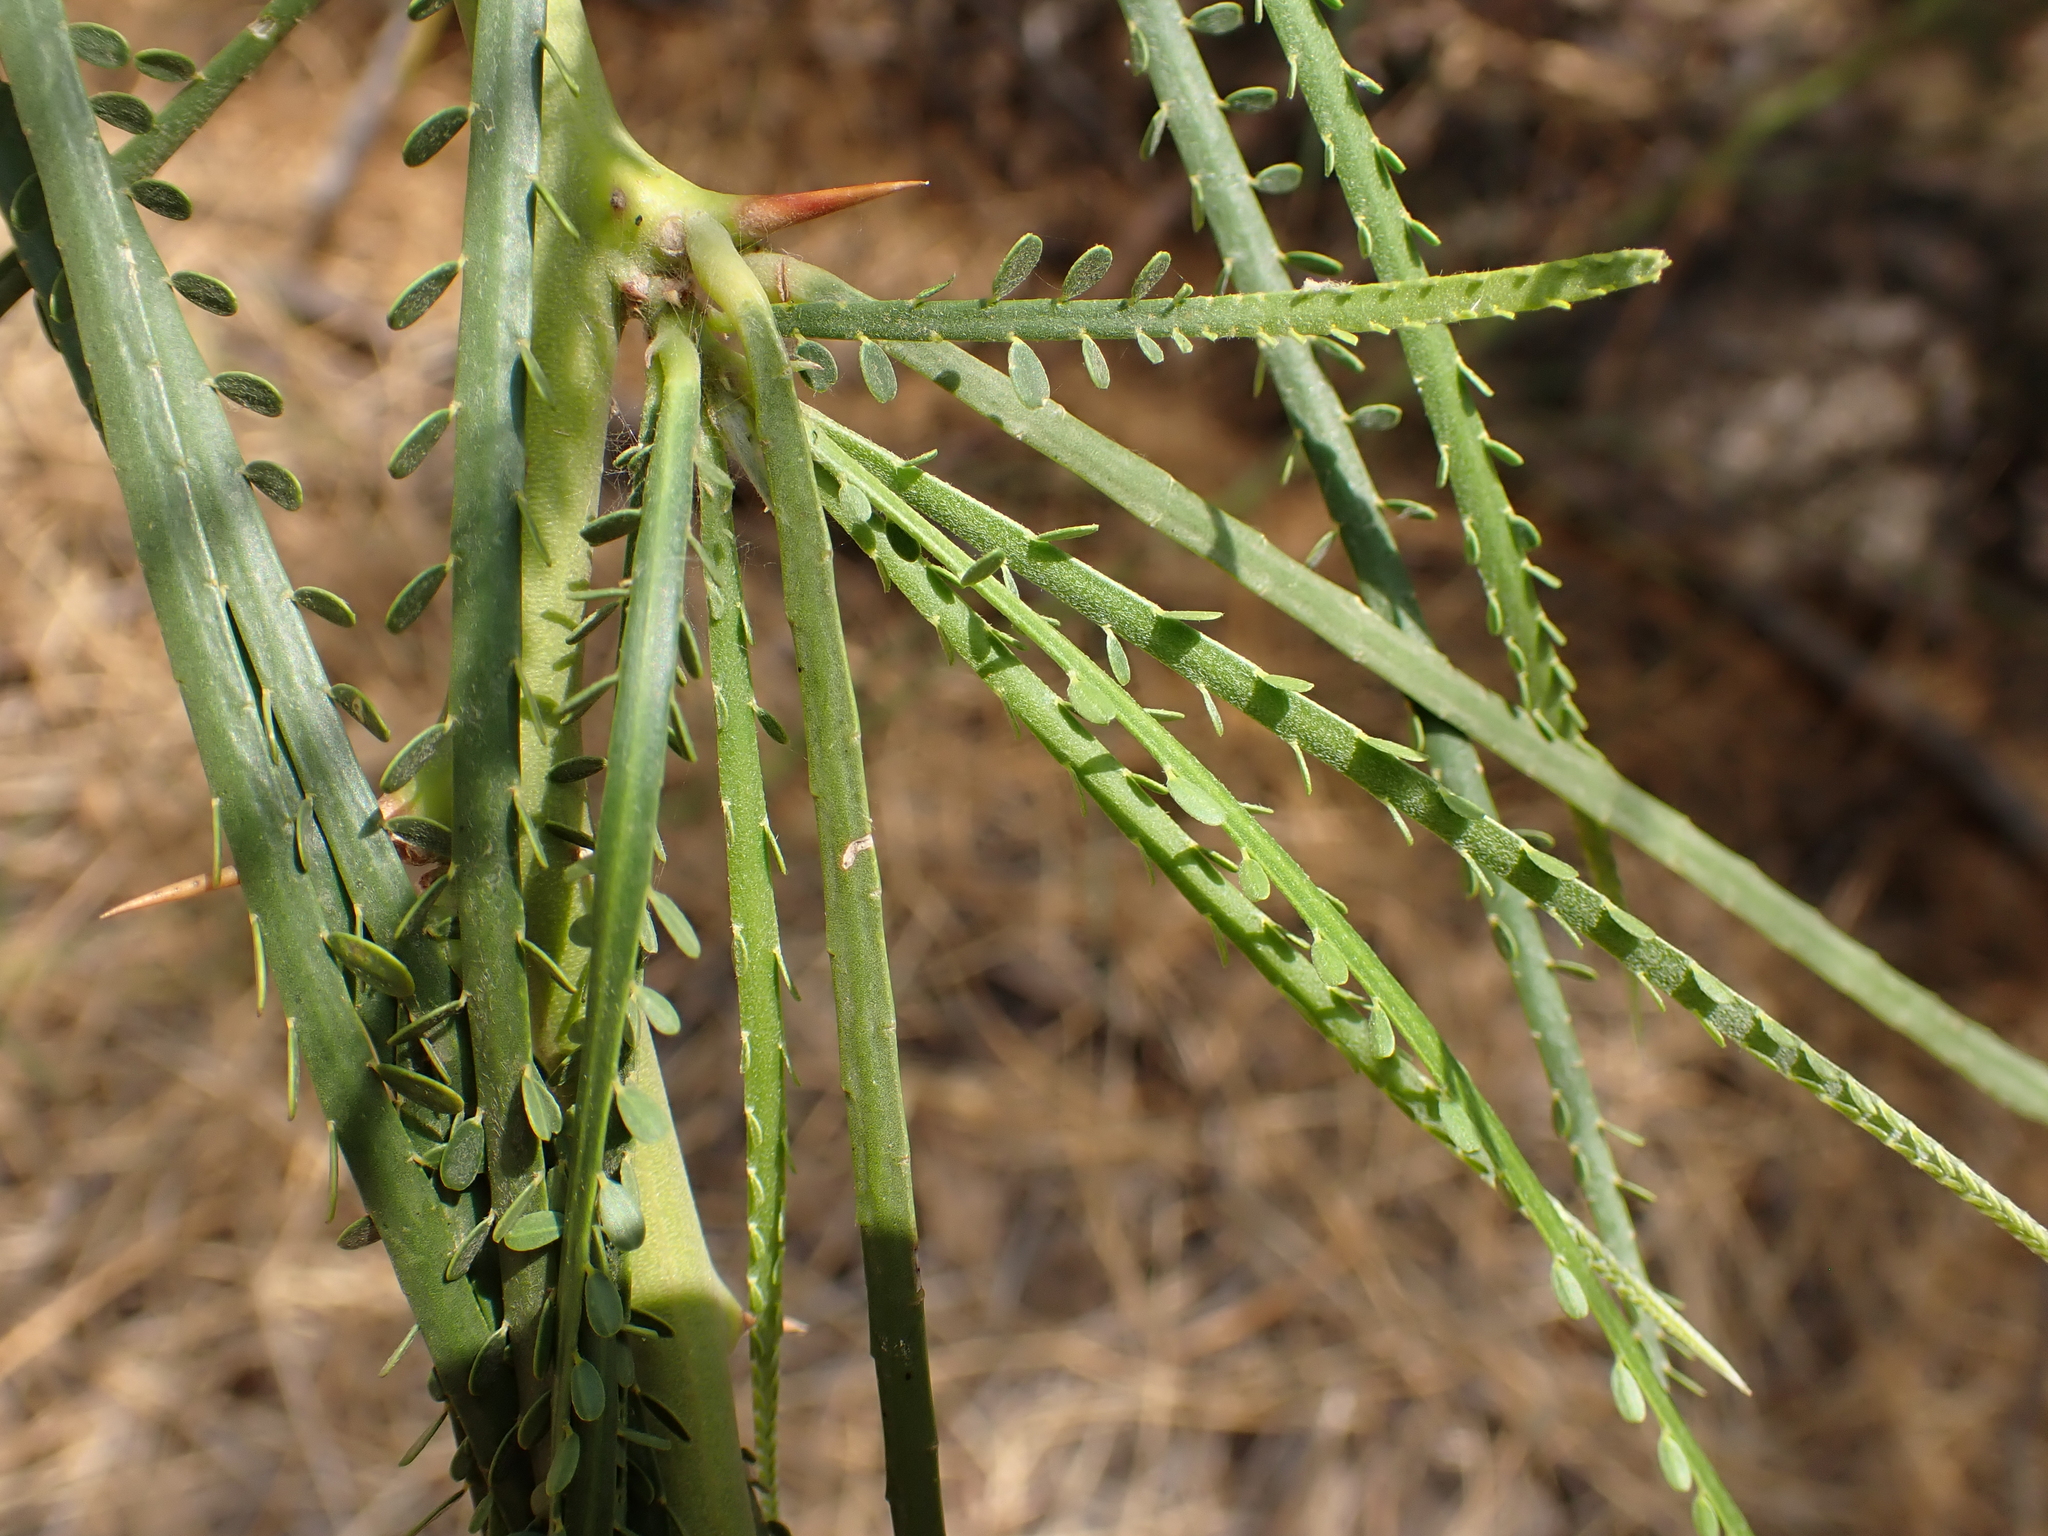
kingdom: Plantae
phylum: Tracheophyta
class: Magnoliopsida
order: Fabales
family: Fabaceae
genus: Parkinsonia
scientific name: Parkinsonia aculeata
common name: Jerusalem thorn
